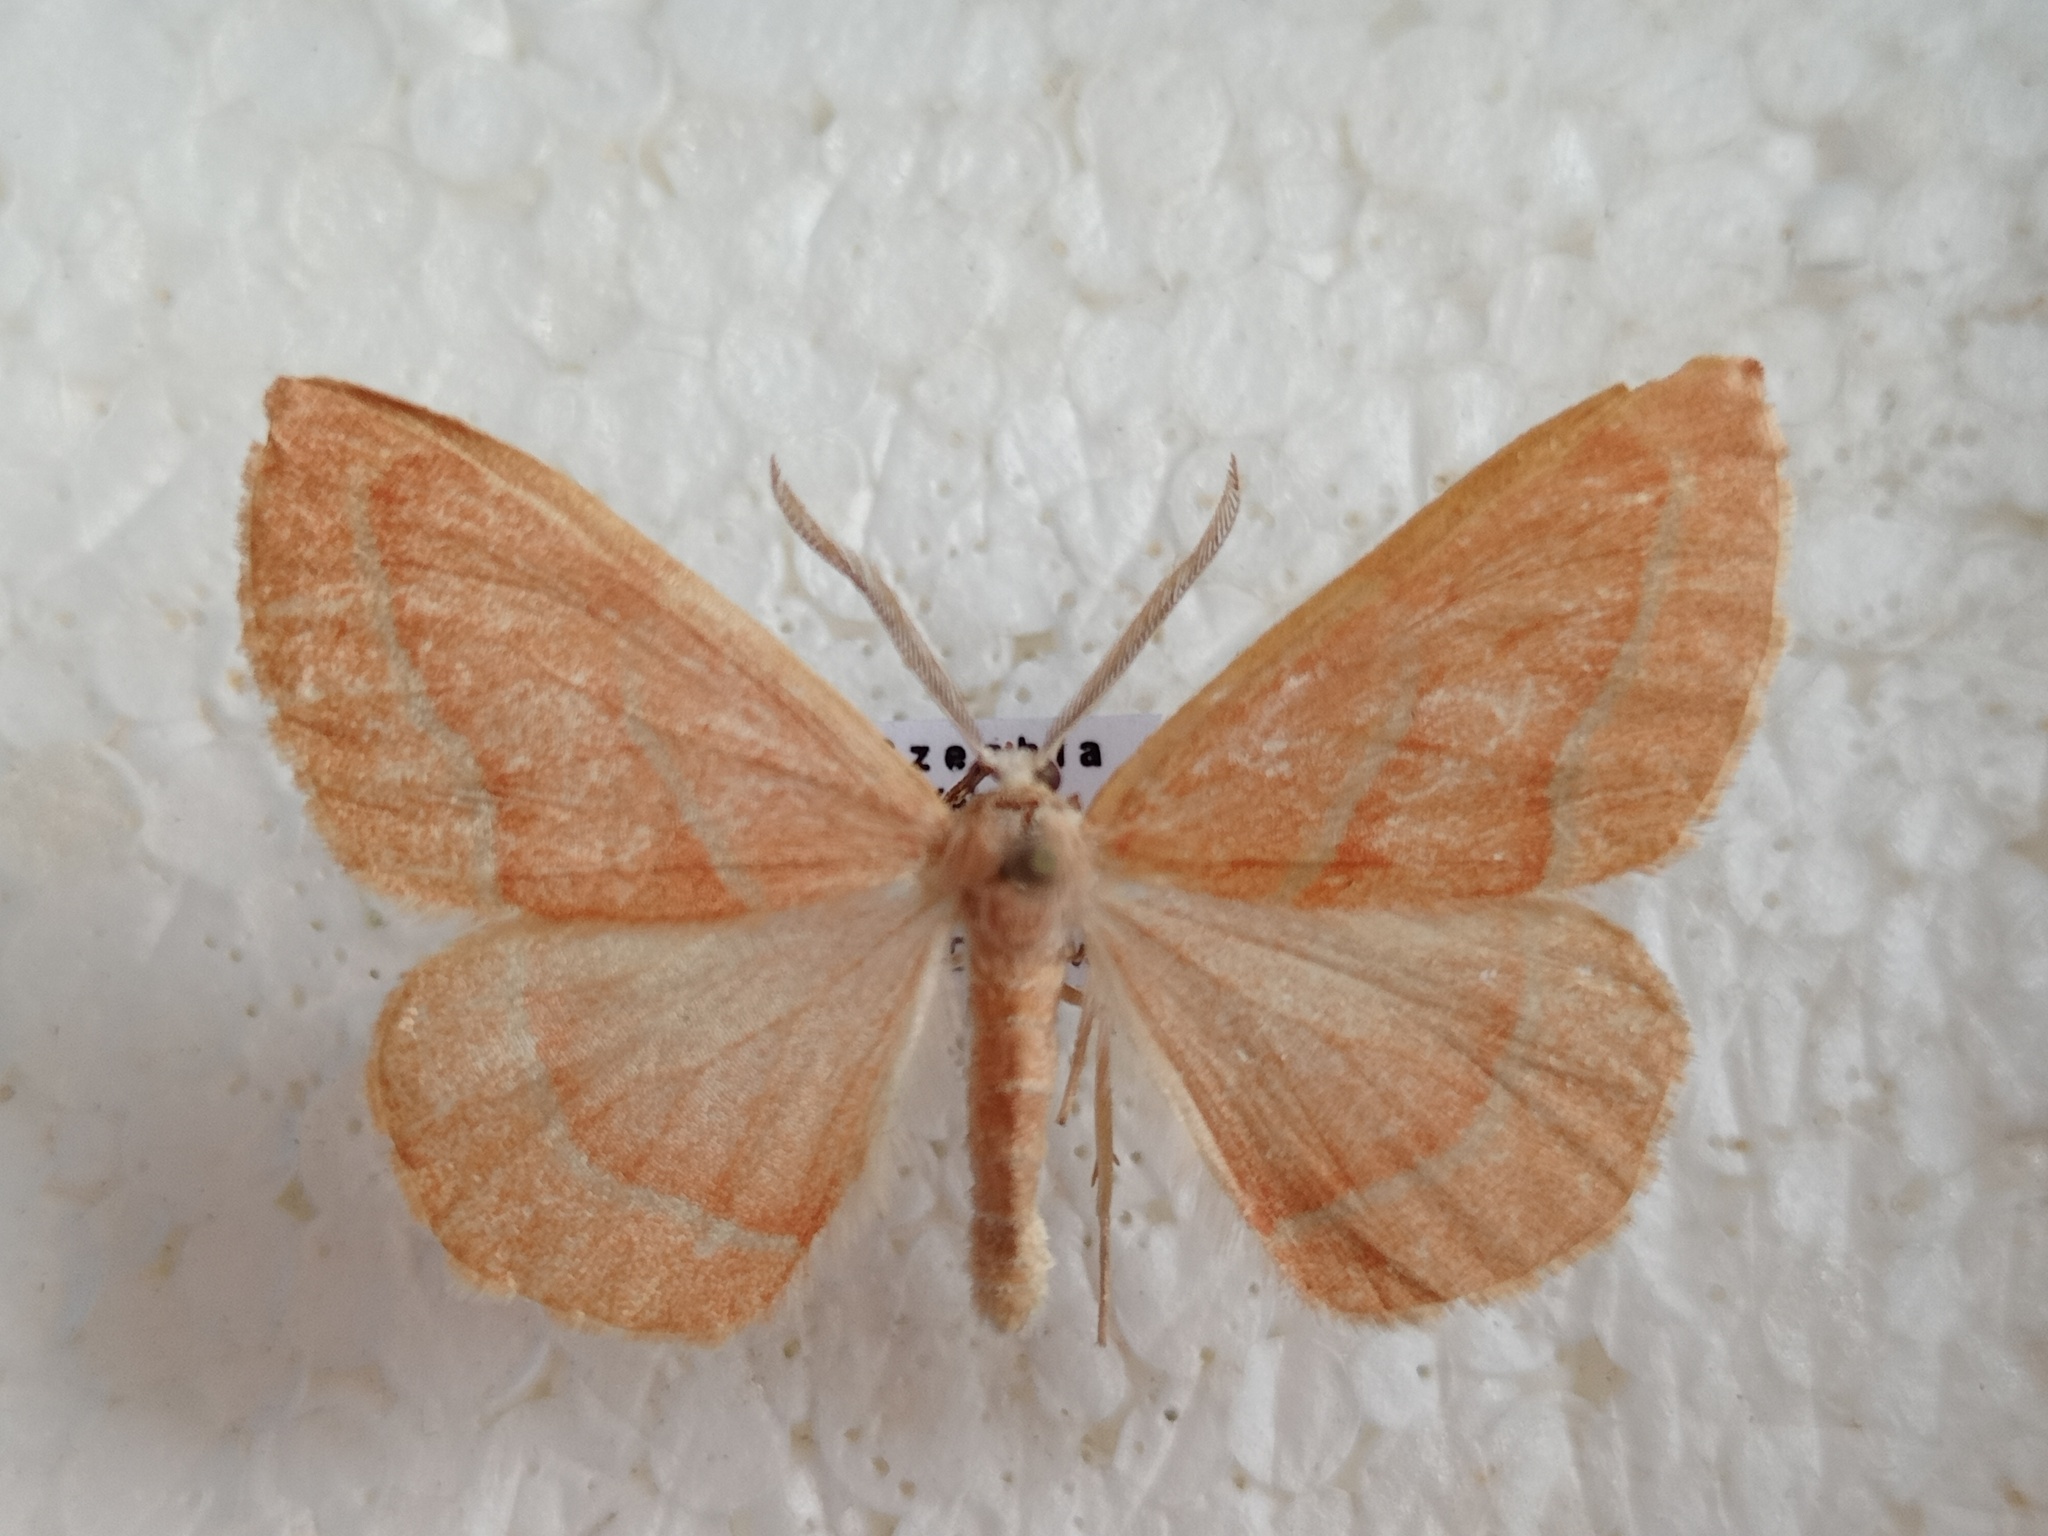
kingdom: Animalia
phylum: Arthropoda
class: Insecta
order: Lepidoptera
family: Geometridae
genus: Hylaea
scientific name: Hylaea fasciaria
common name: Barred red
